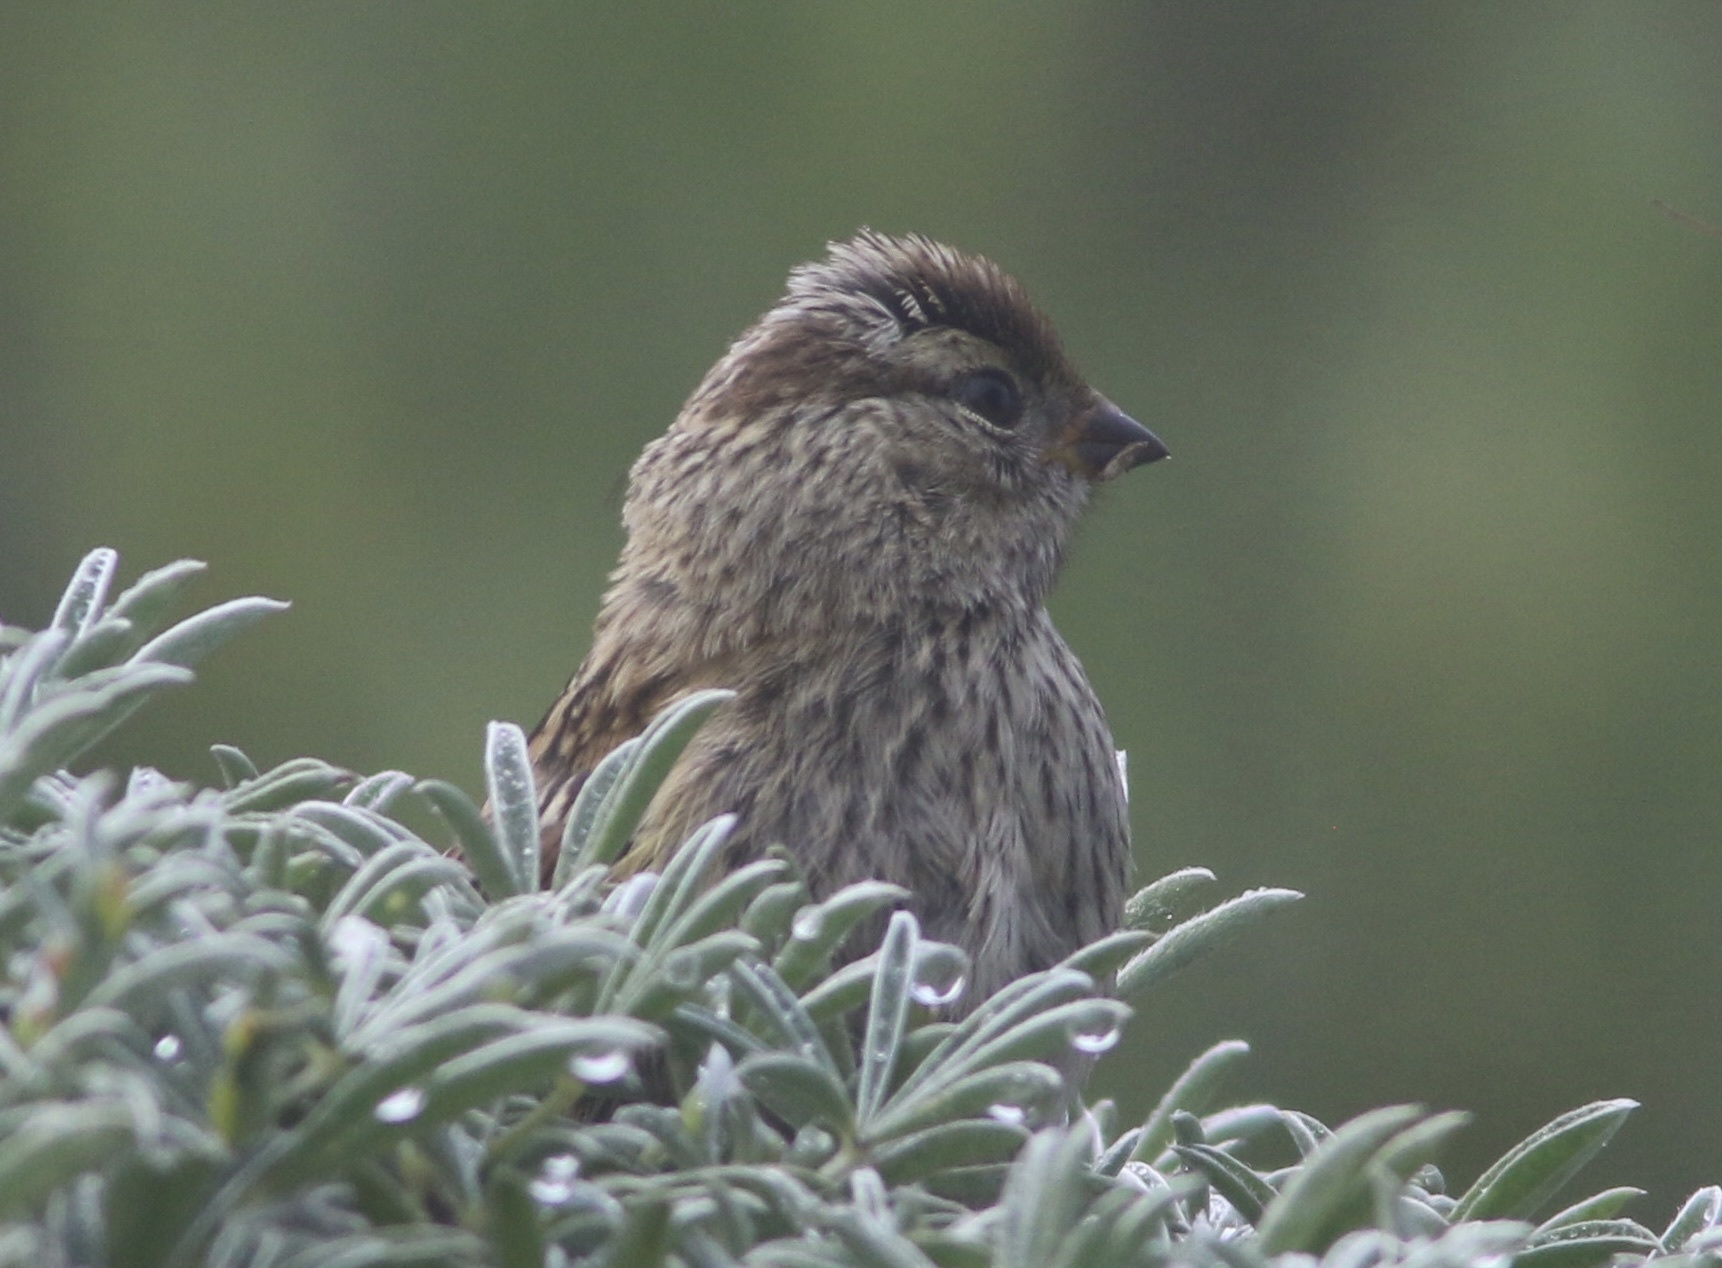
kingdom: Animalia
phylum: Chordata
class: Aves
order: Passeriformes
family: Passerellidae
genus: Zonotrichia
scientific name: Zonotrichia leucophrys
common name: White-crowned sparrow
